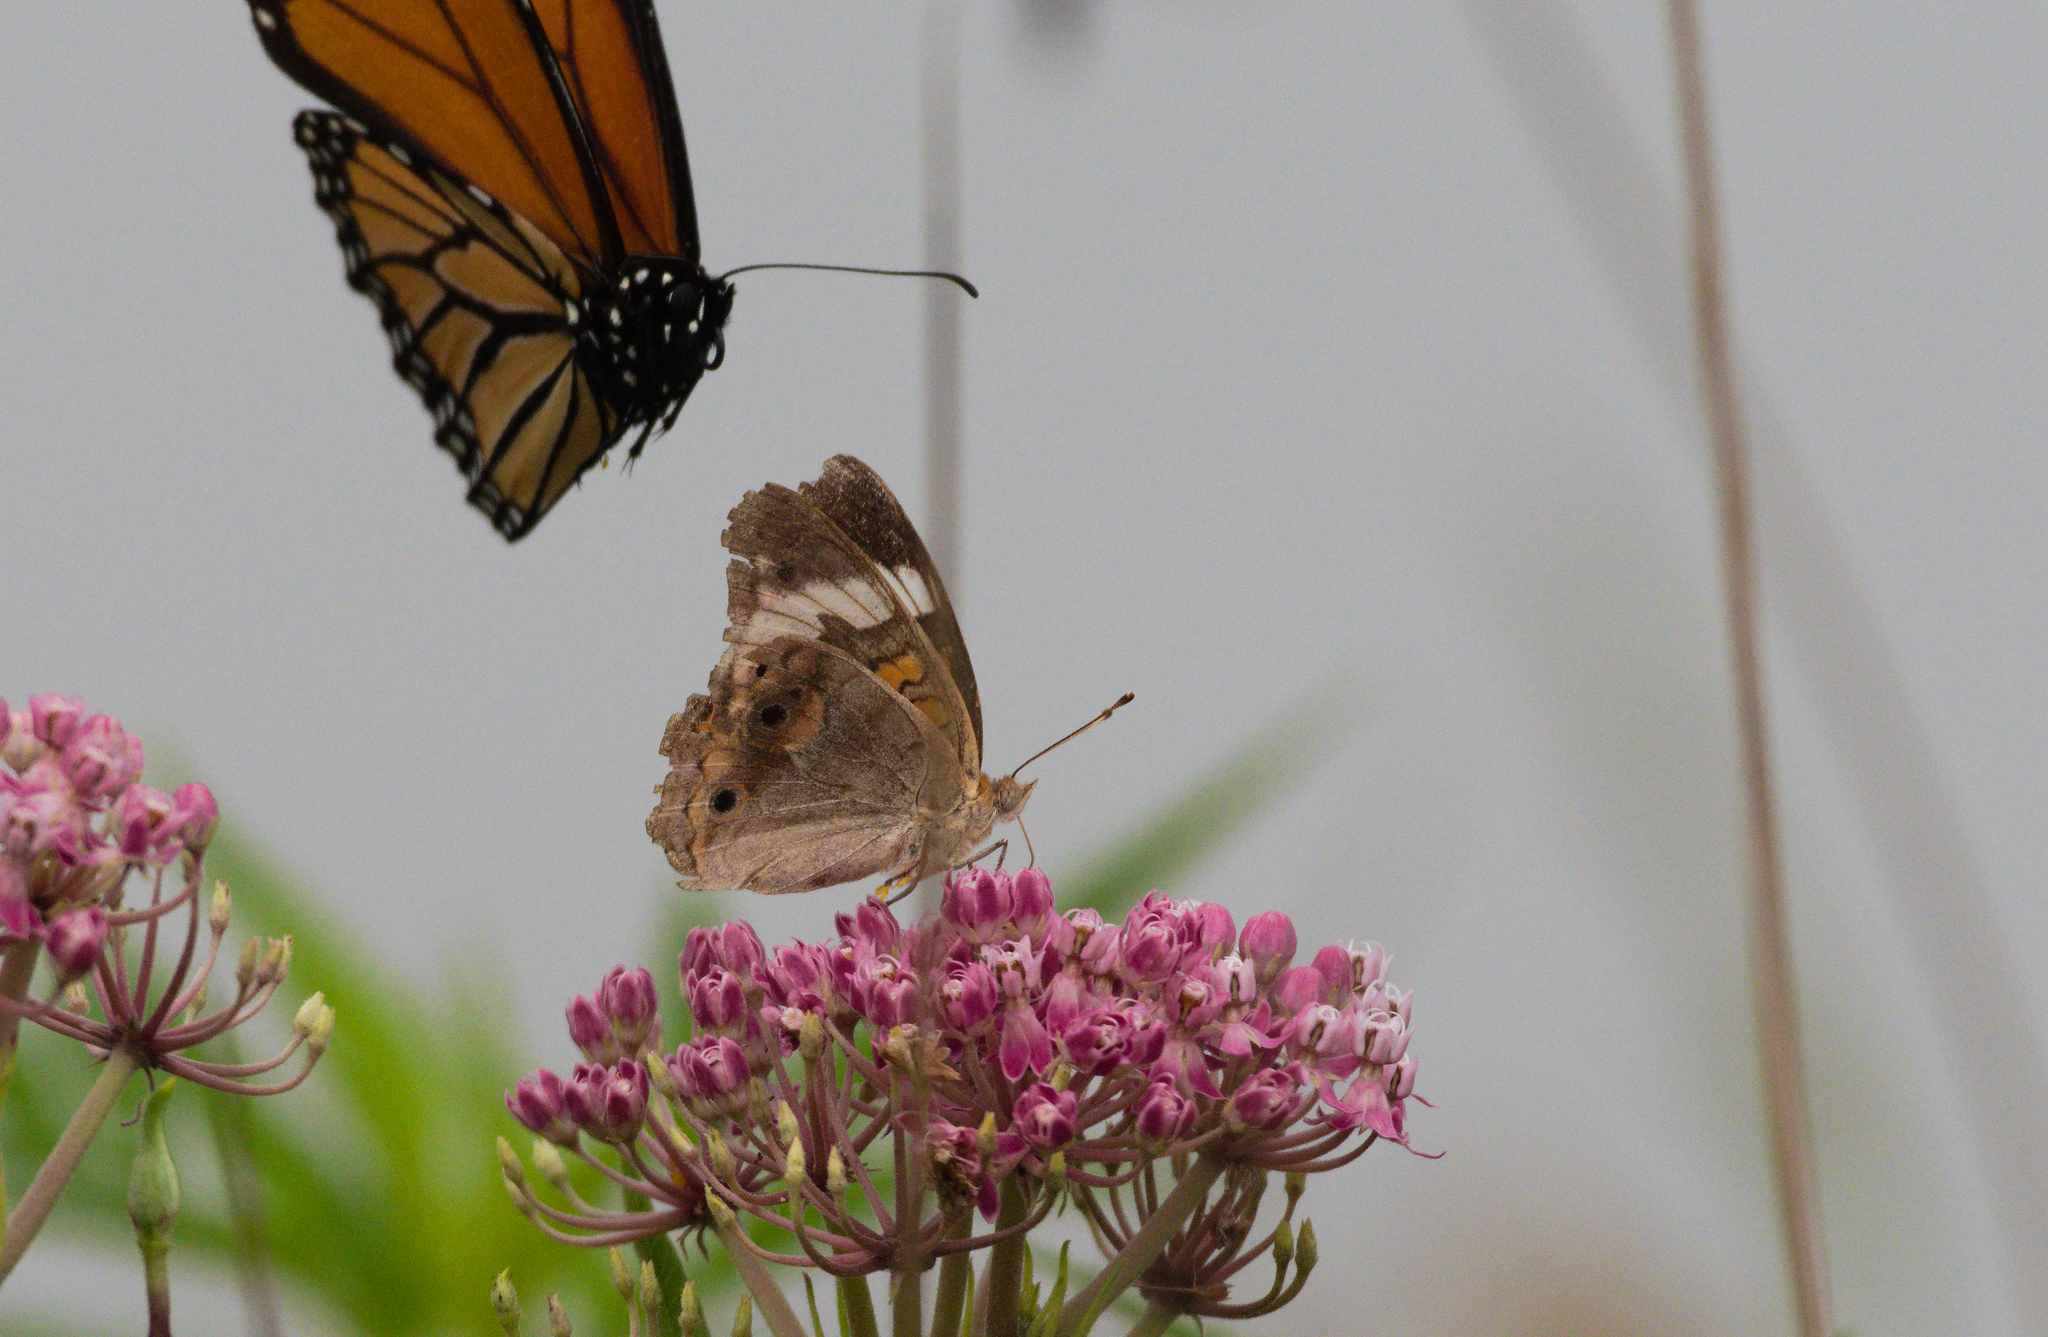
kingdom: Animalia
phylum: Arthropoda
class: Insecta
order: Lepidoptera
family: Nymphalidae
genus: Junonia
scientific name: Junonia coenia
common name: Common buckeye
